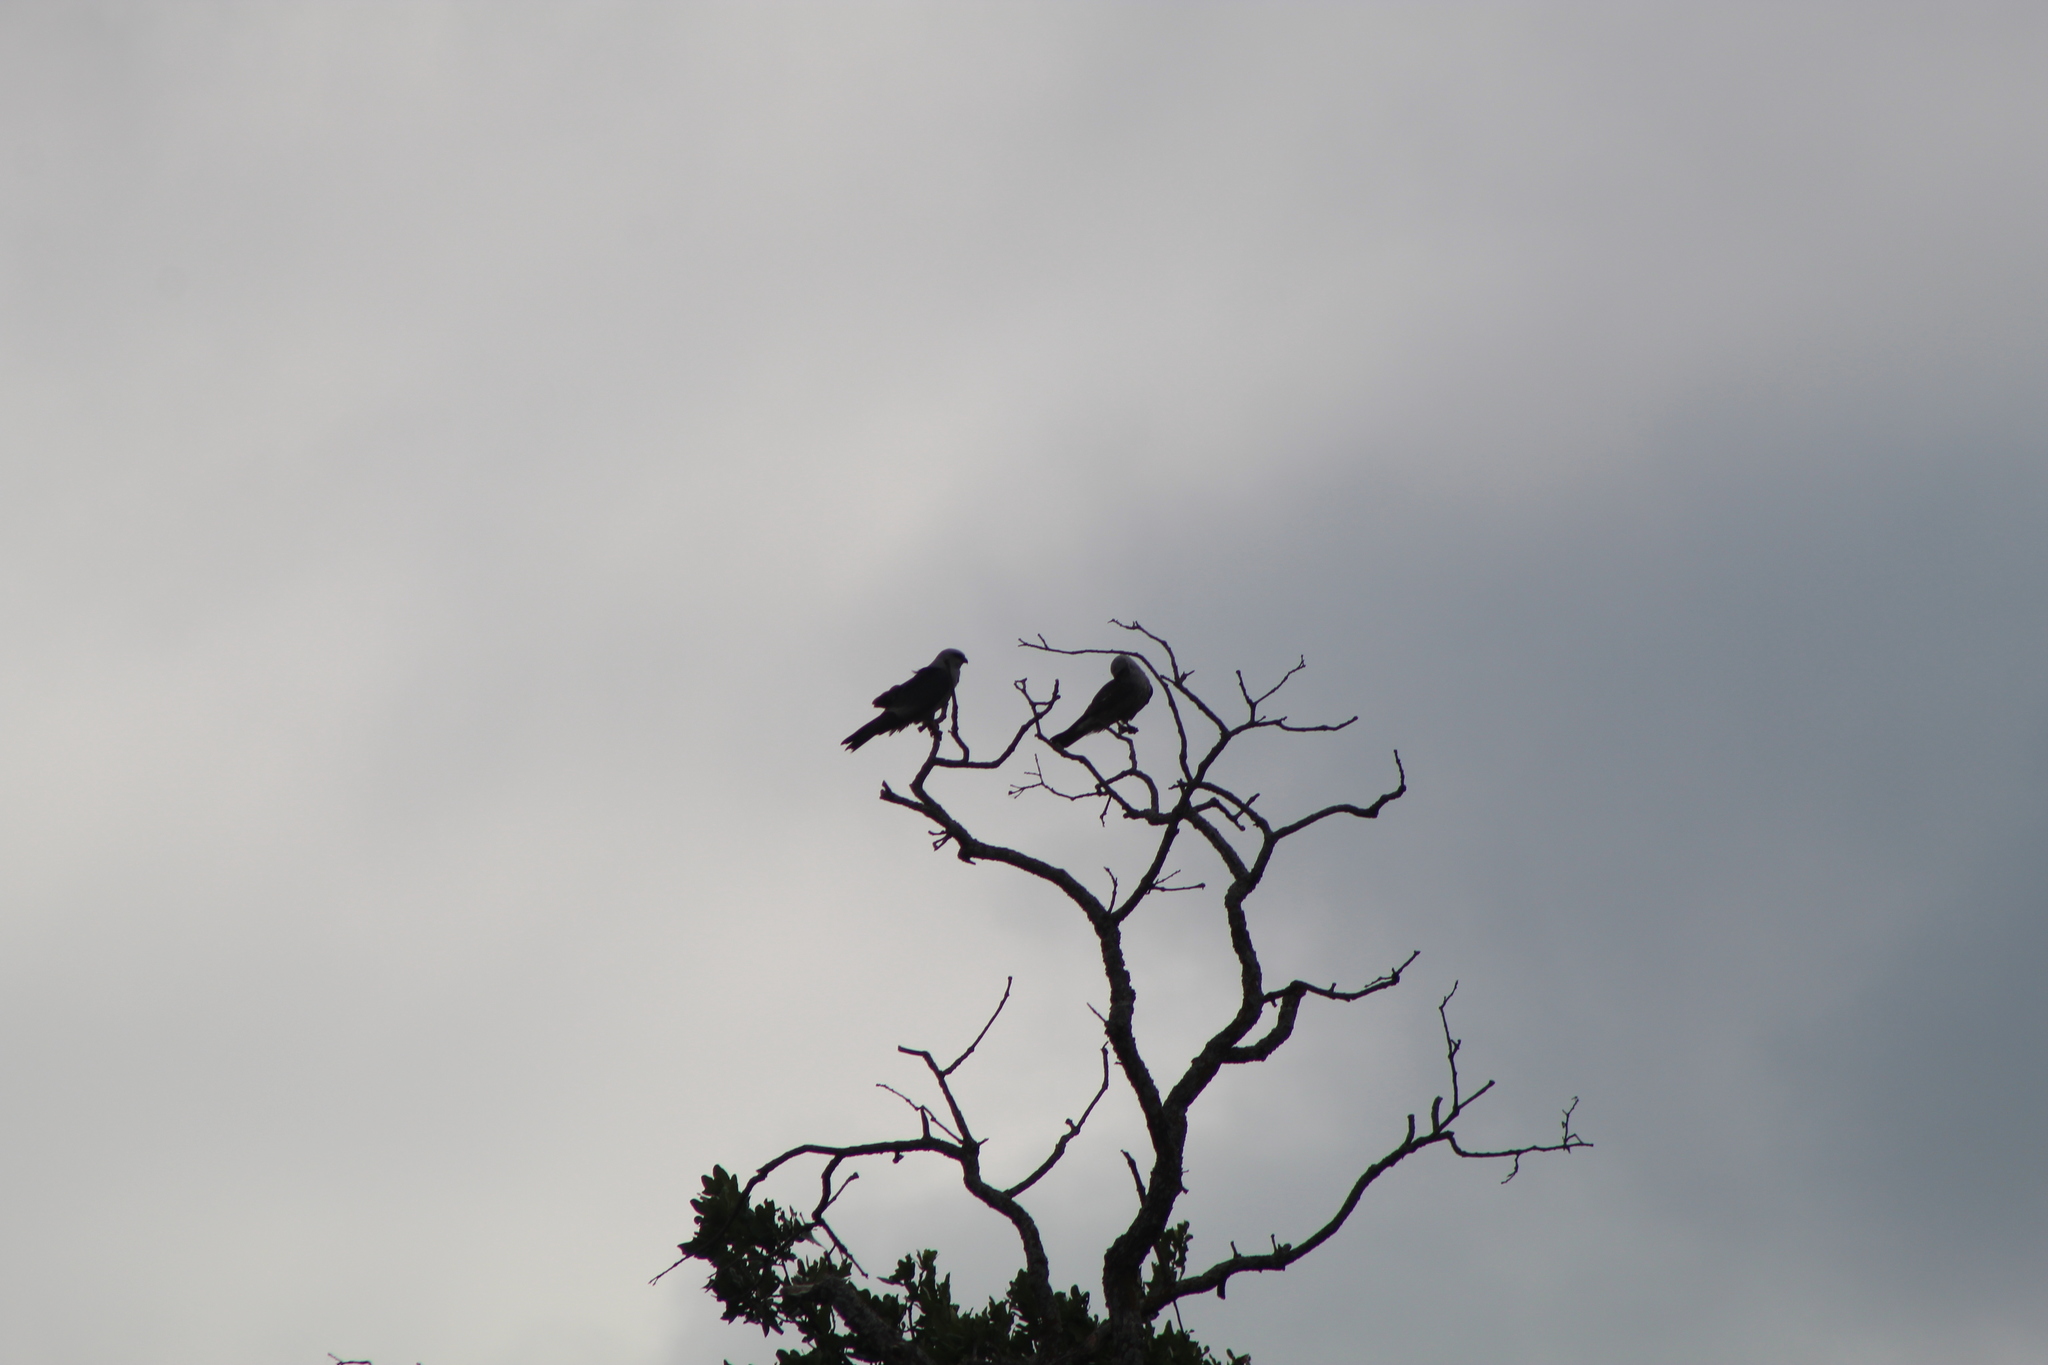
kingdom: Animalia
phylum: Chordata
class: Aves
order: Accipitriformes
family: Accipitridae
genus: Ictinia
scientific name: Ictinia mississippiensis
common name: Mississippi kite
